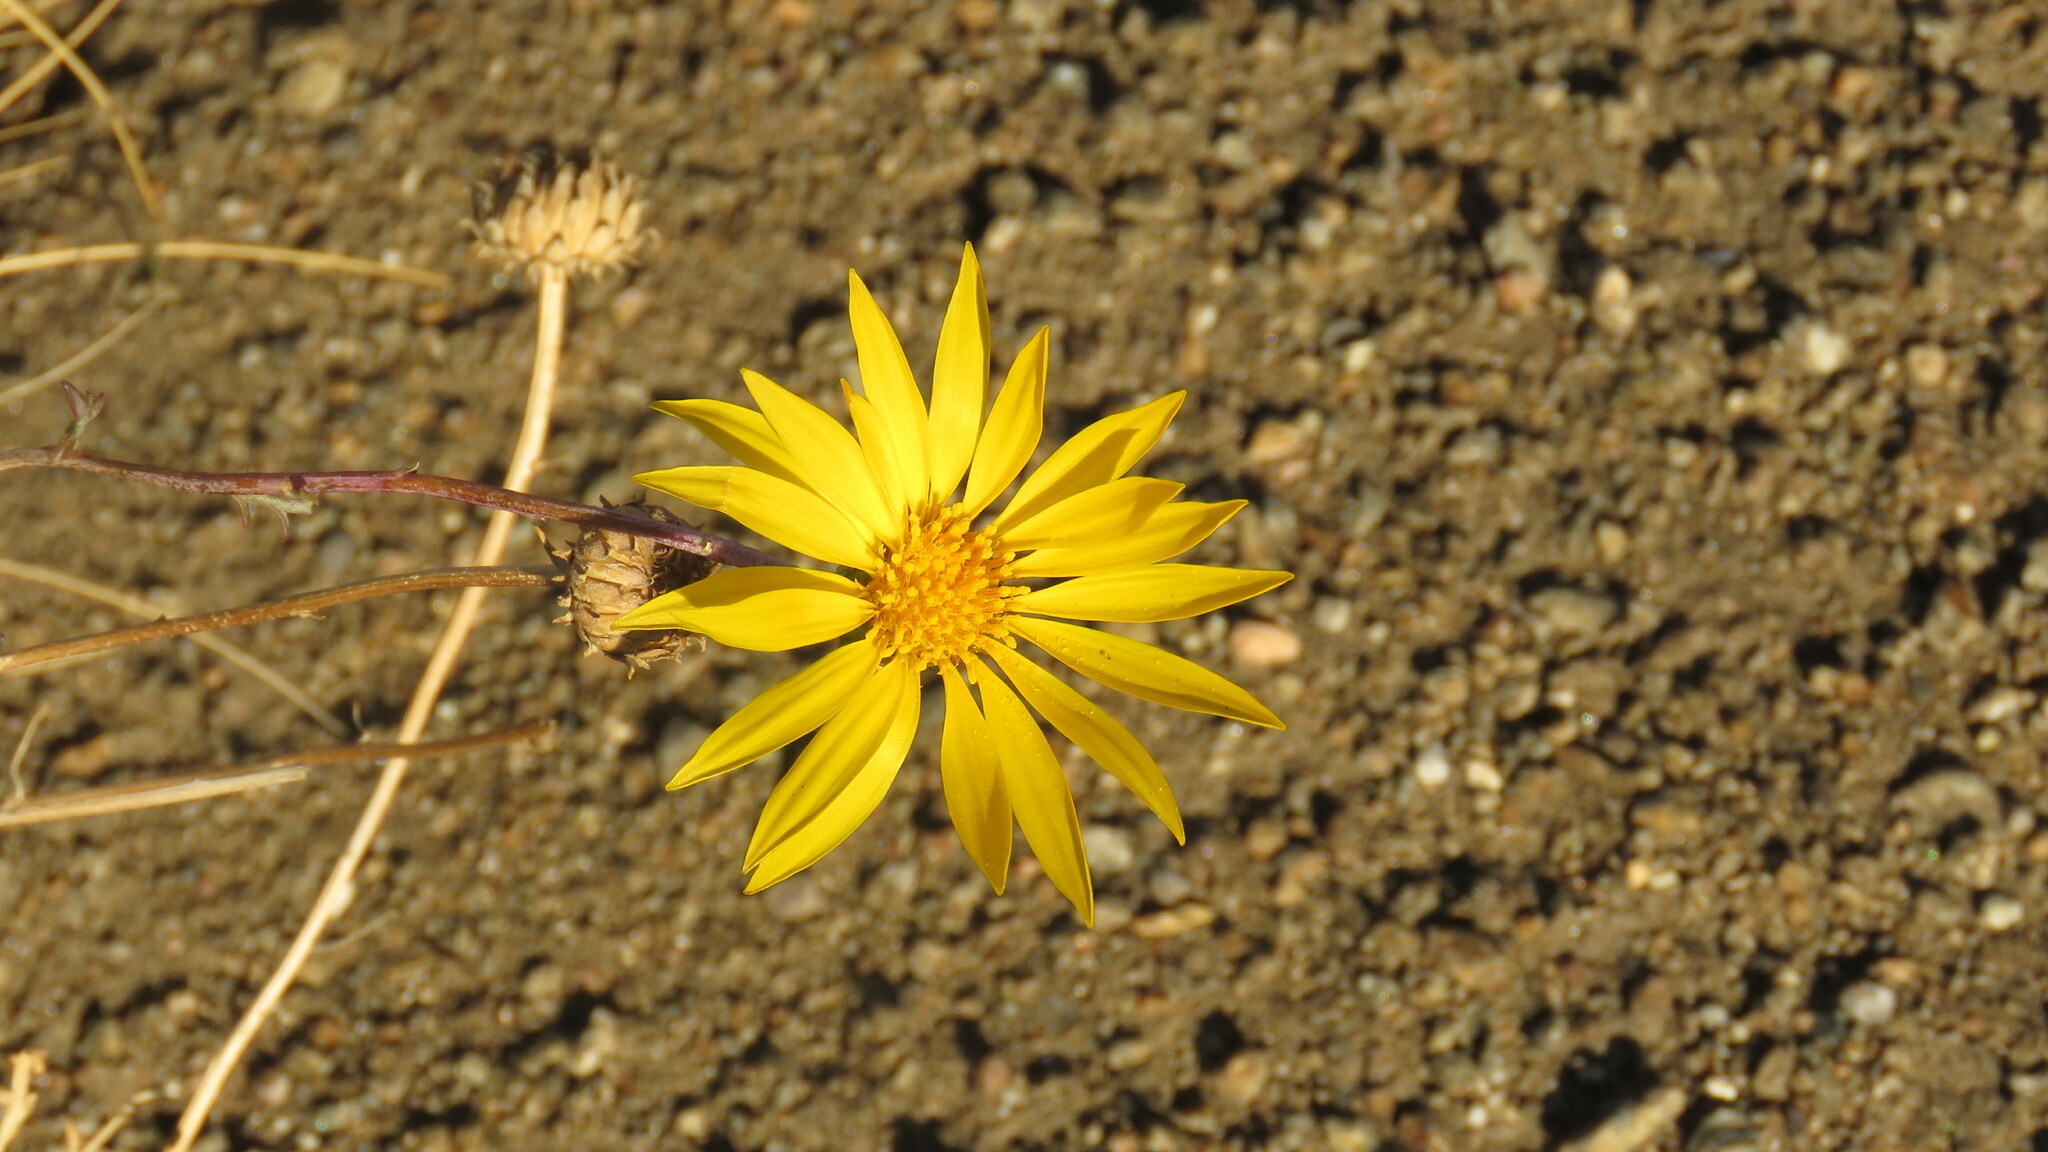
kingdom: Plantae
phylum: Tracheophyta
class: Magnoliopsida
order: Asterales
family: Asteraceae
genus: Grindelia
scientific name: Grindelia anethifolia
